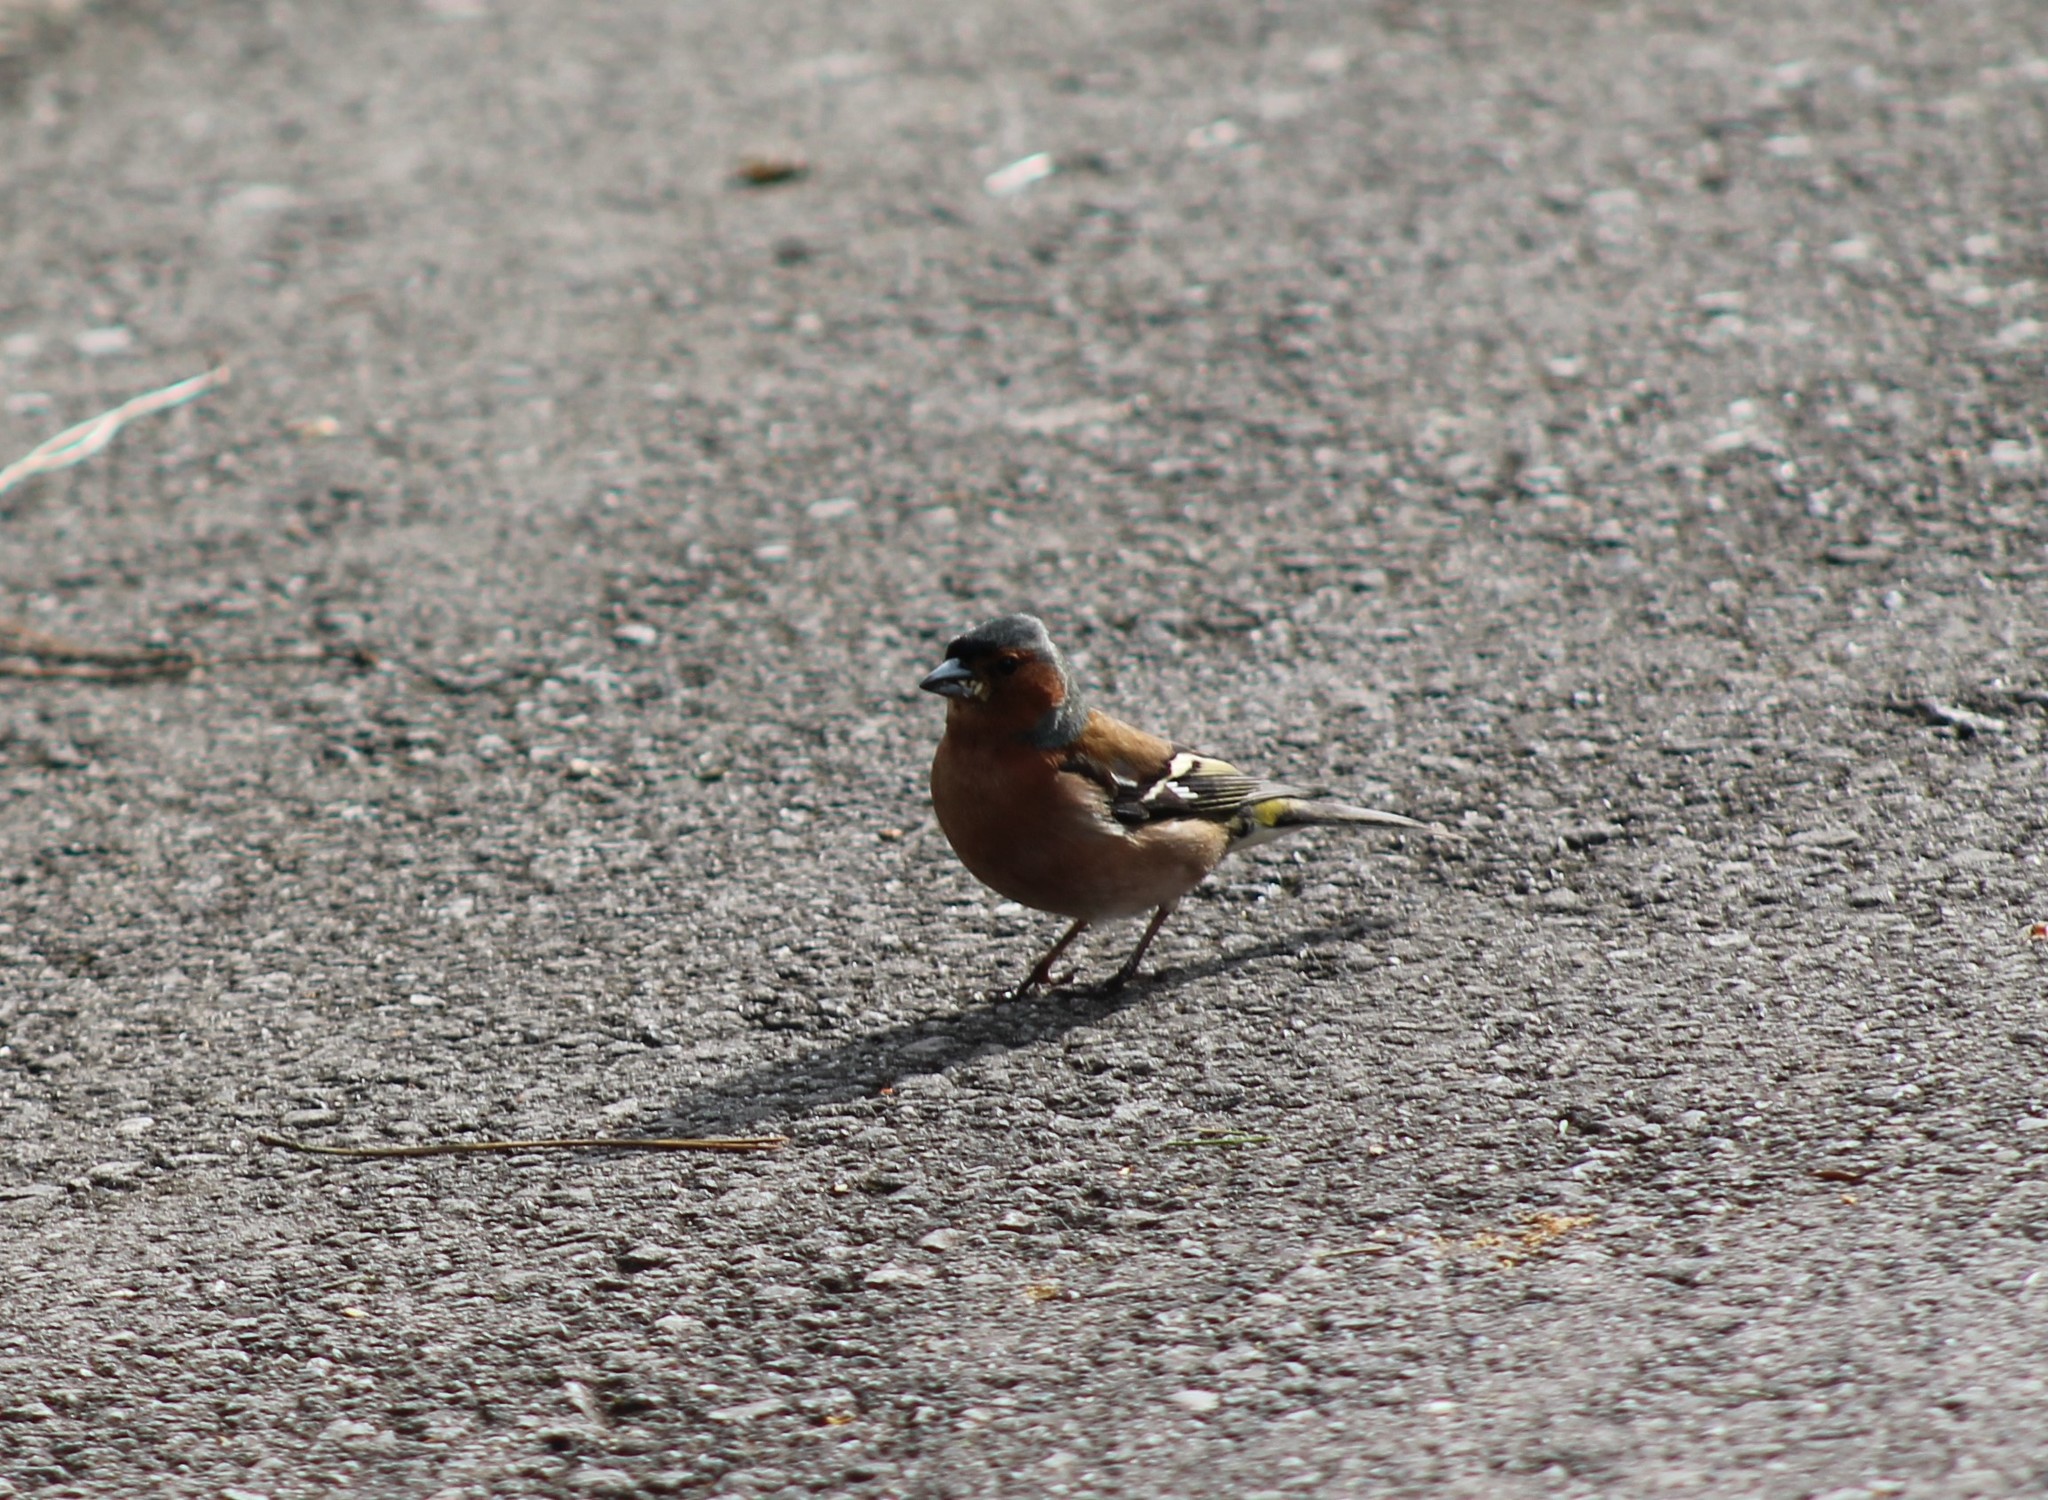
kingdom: Animalia
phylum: Chordata
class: Aves
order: Passeriformes
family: Fringillidae
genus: Fringilla
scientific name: Fringilla coelebs
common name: Common chaffinch
